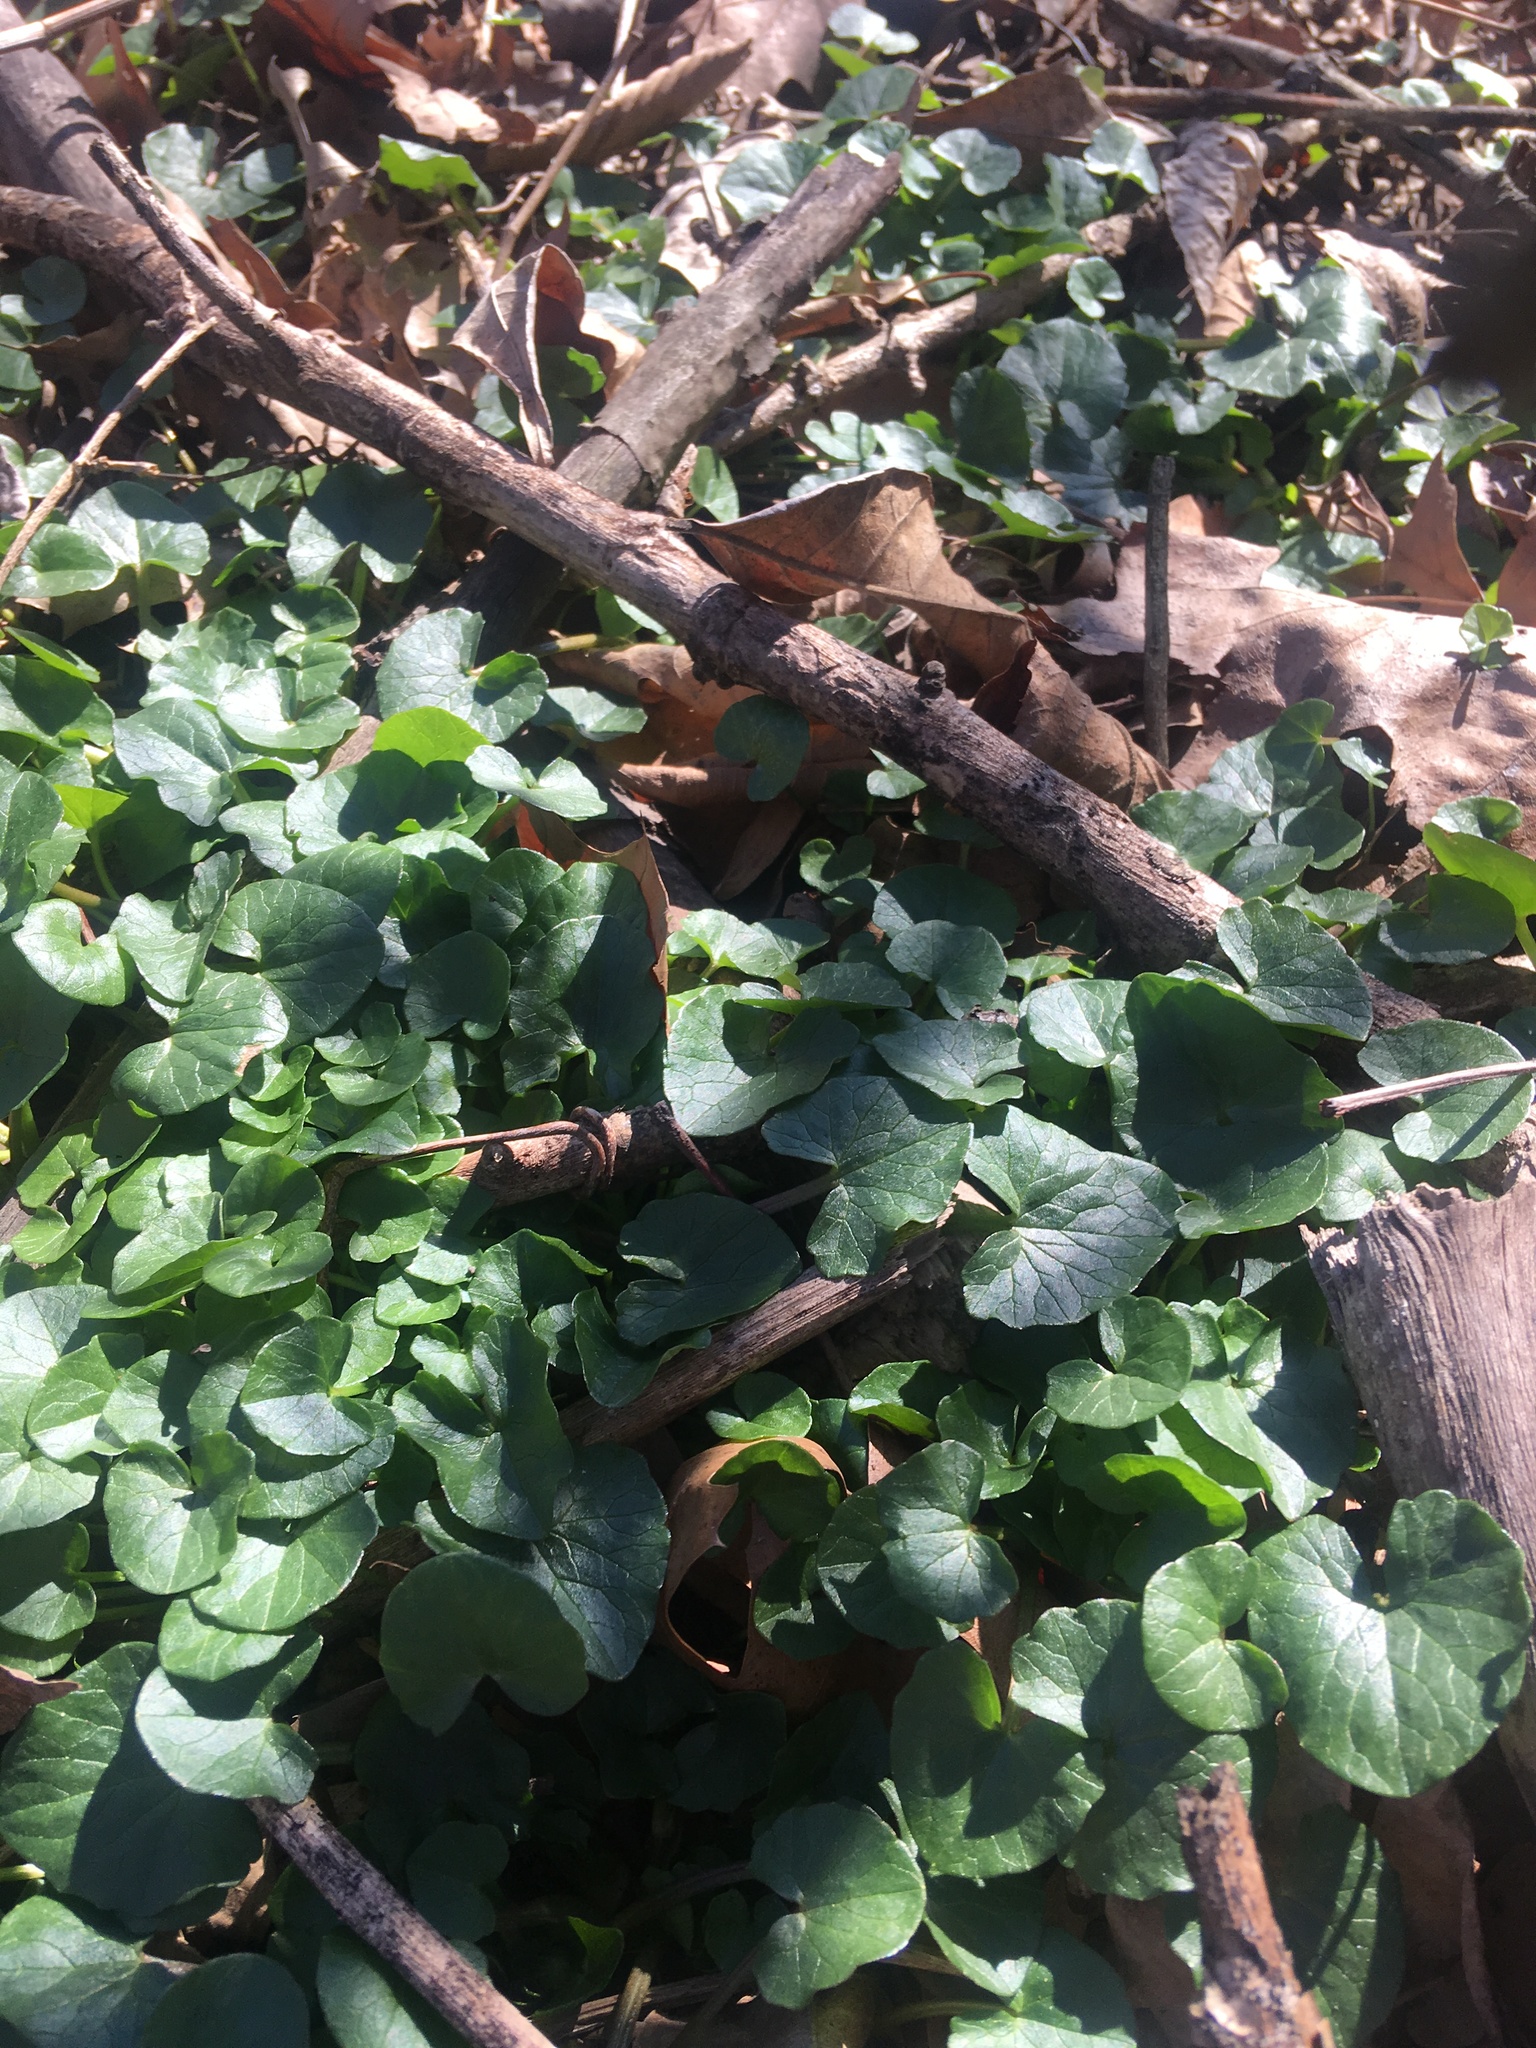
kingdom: Plantae
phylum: Tracheophyta
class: Magnoliopsida
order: Ranunculales
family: Ranunculaceae
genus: Ficaria
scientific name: Ficaria verna
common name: Lesser celandine
